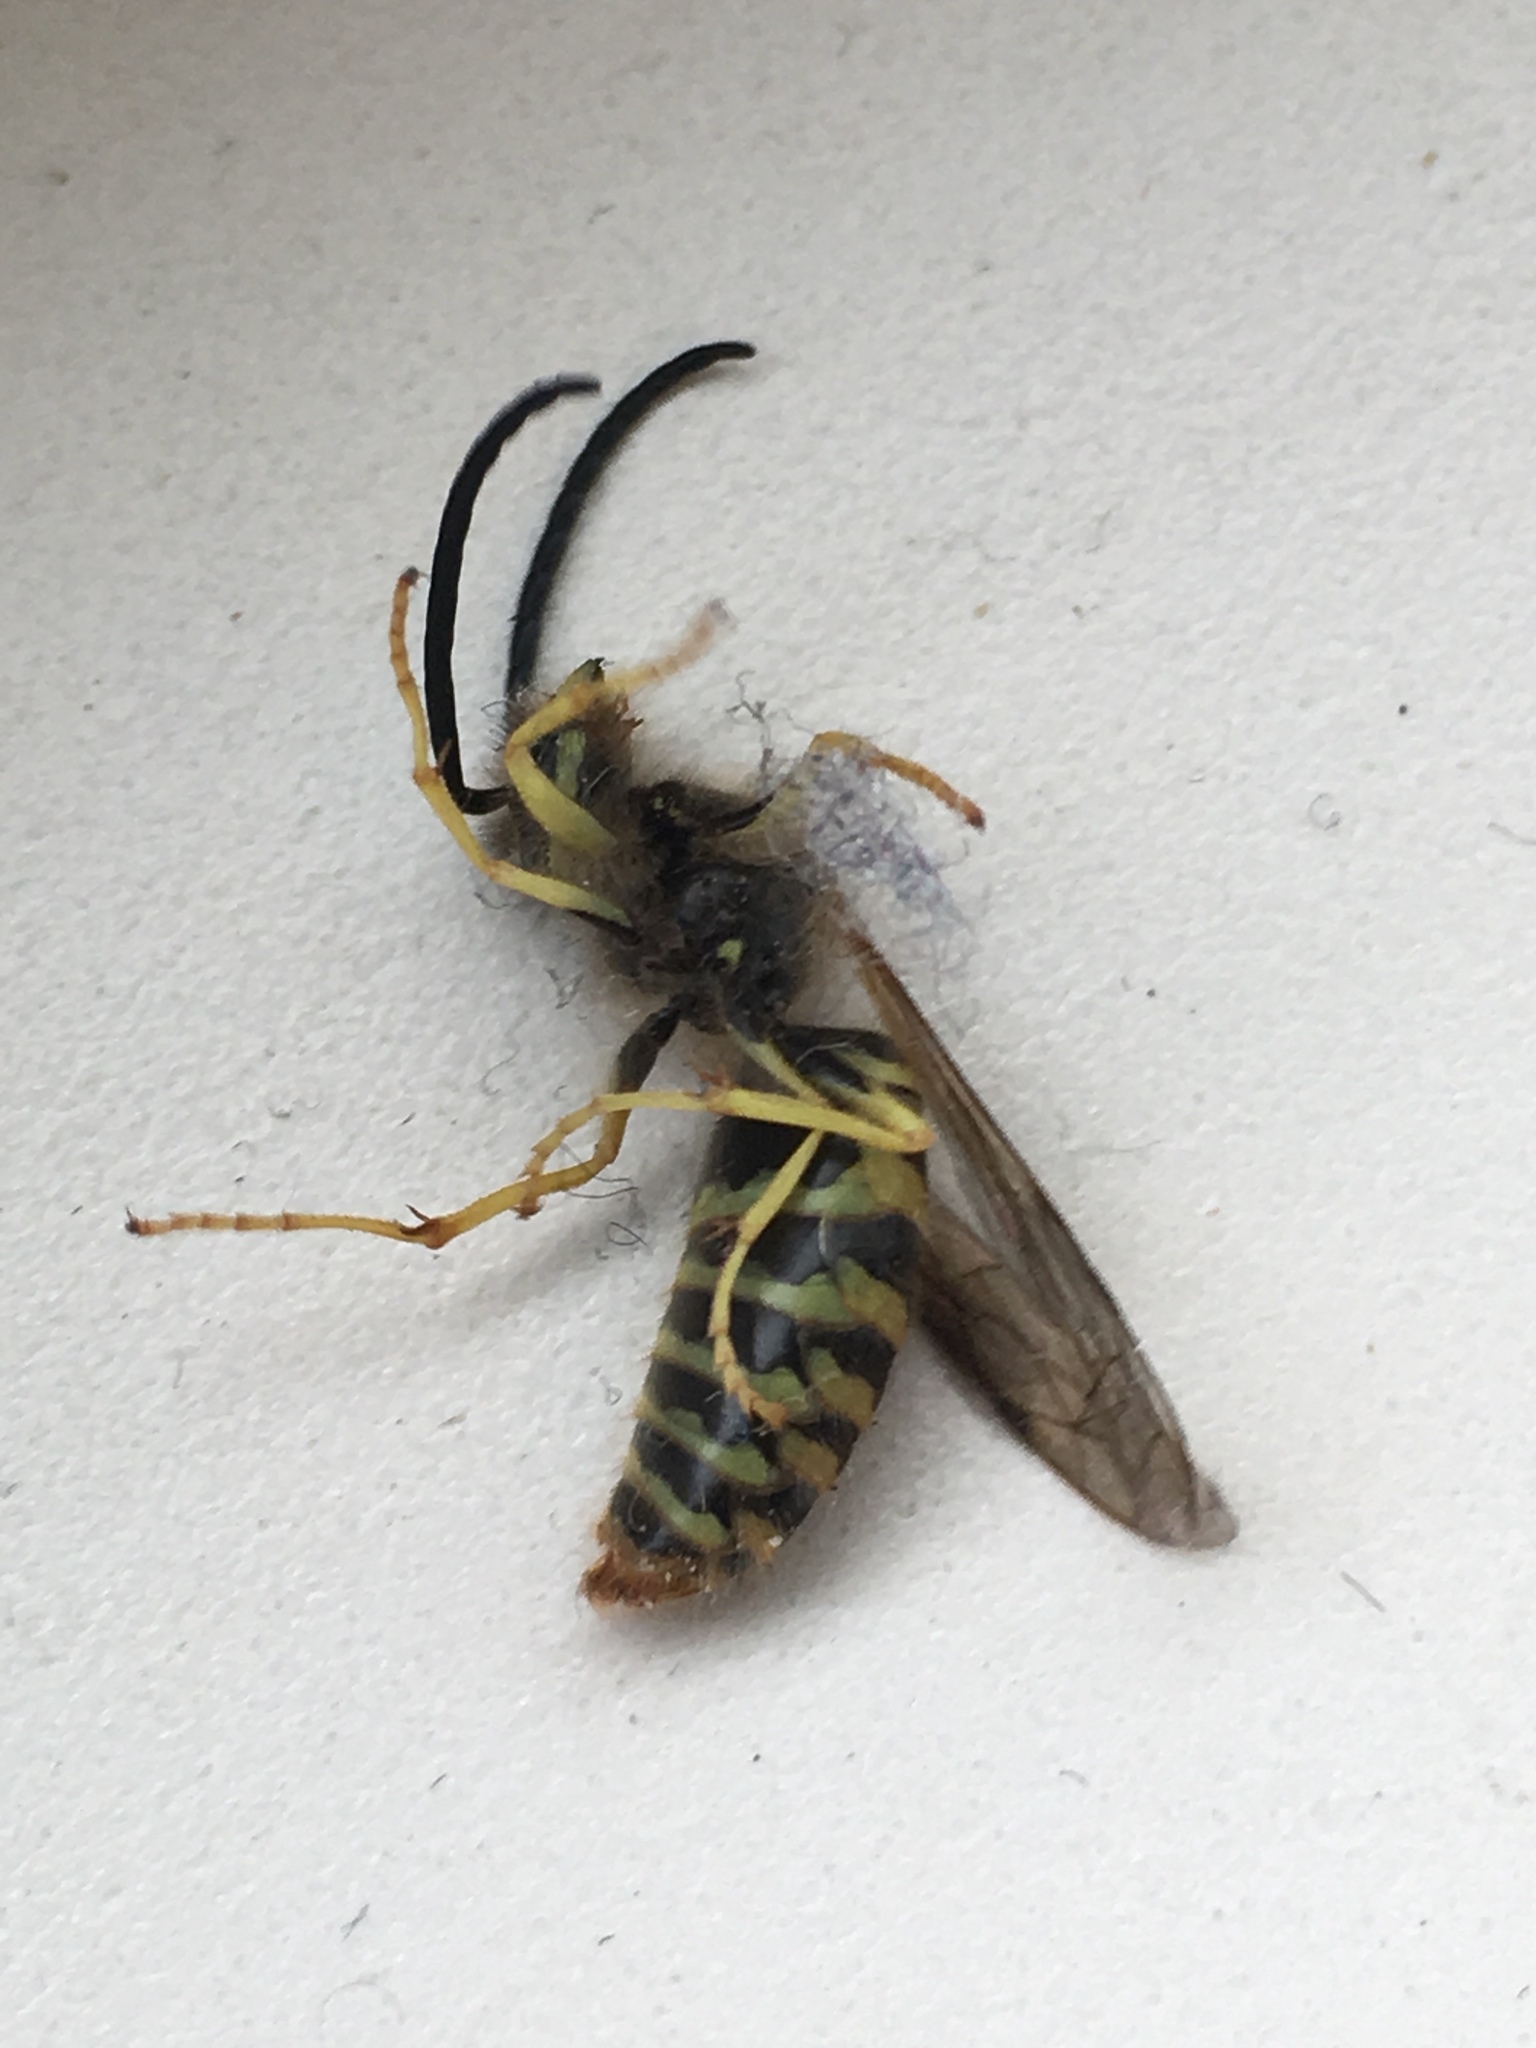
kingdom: Animalia
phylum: Arthropoda
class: Insecta
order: Hymenoptera
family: Vespidae
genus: Vespula
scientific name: Vespula vidua
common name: Widow yellowjacket
